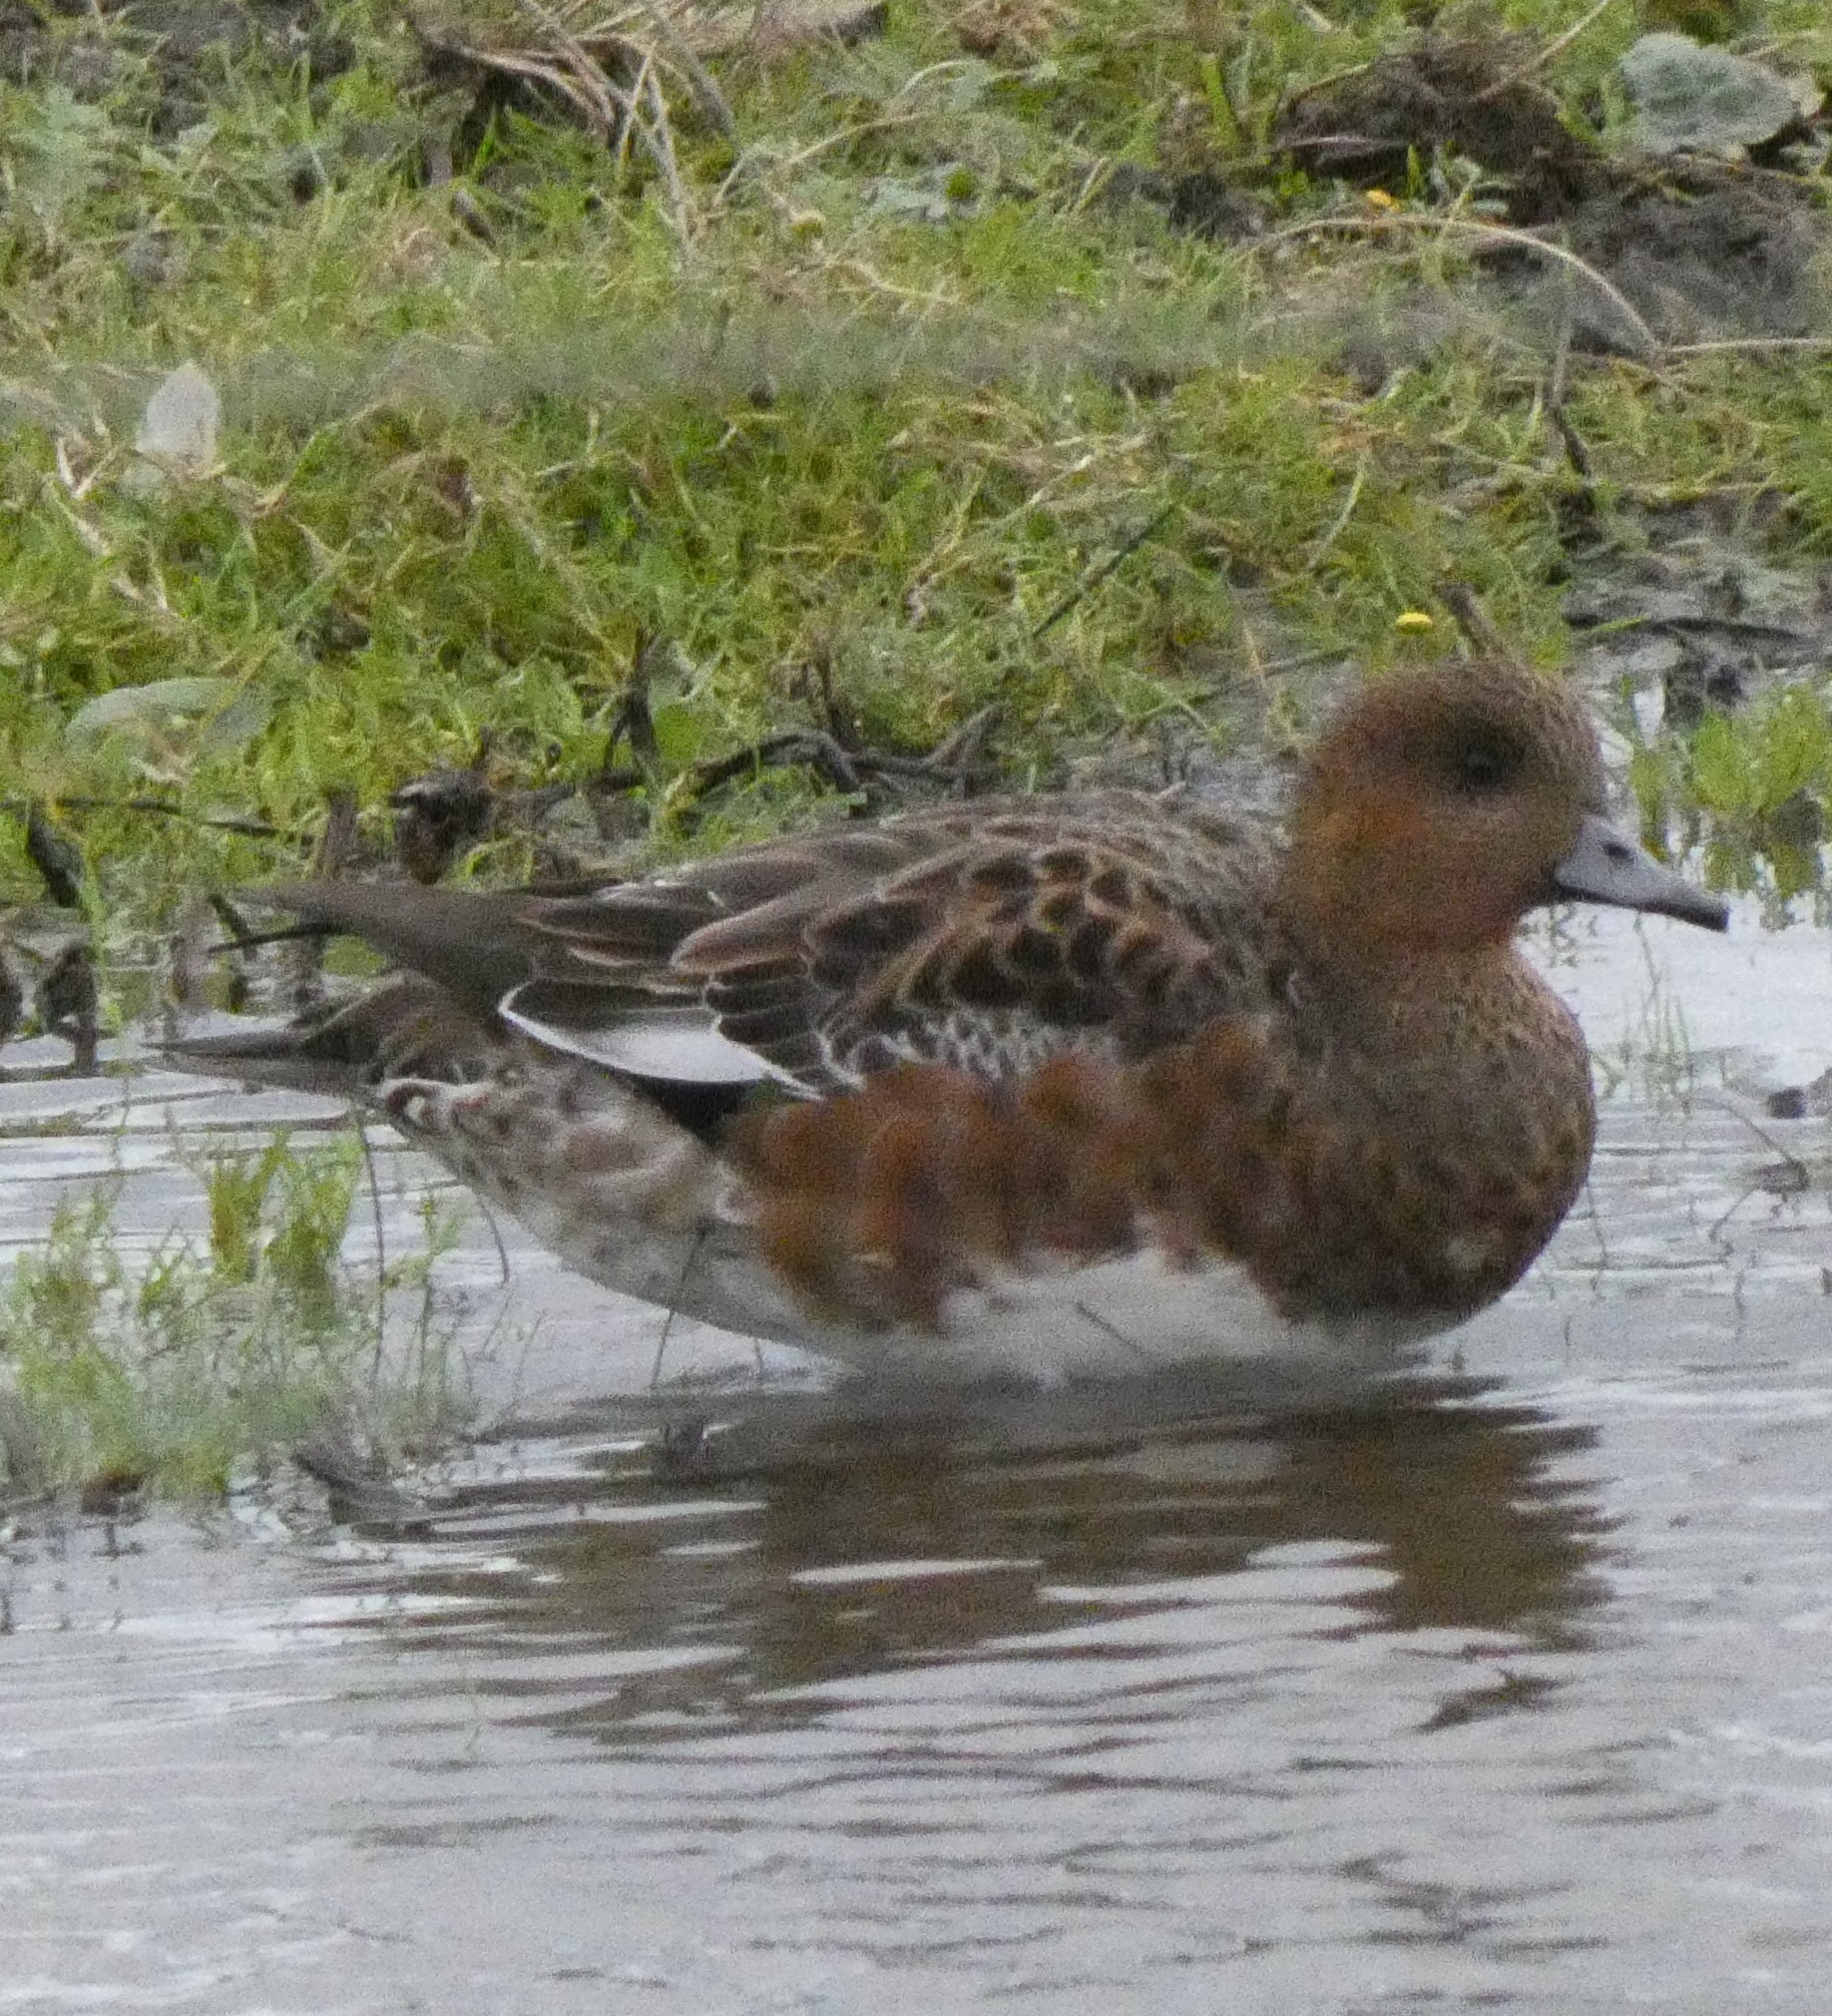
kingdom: Animalia
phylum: Chordata
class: Aves
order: Anseriformes
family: Anatidae
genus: Mareca
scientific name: Mareca penelope
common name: Eurasian wigeon
